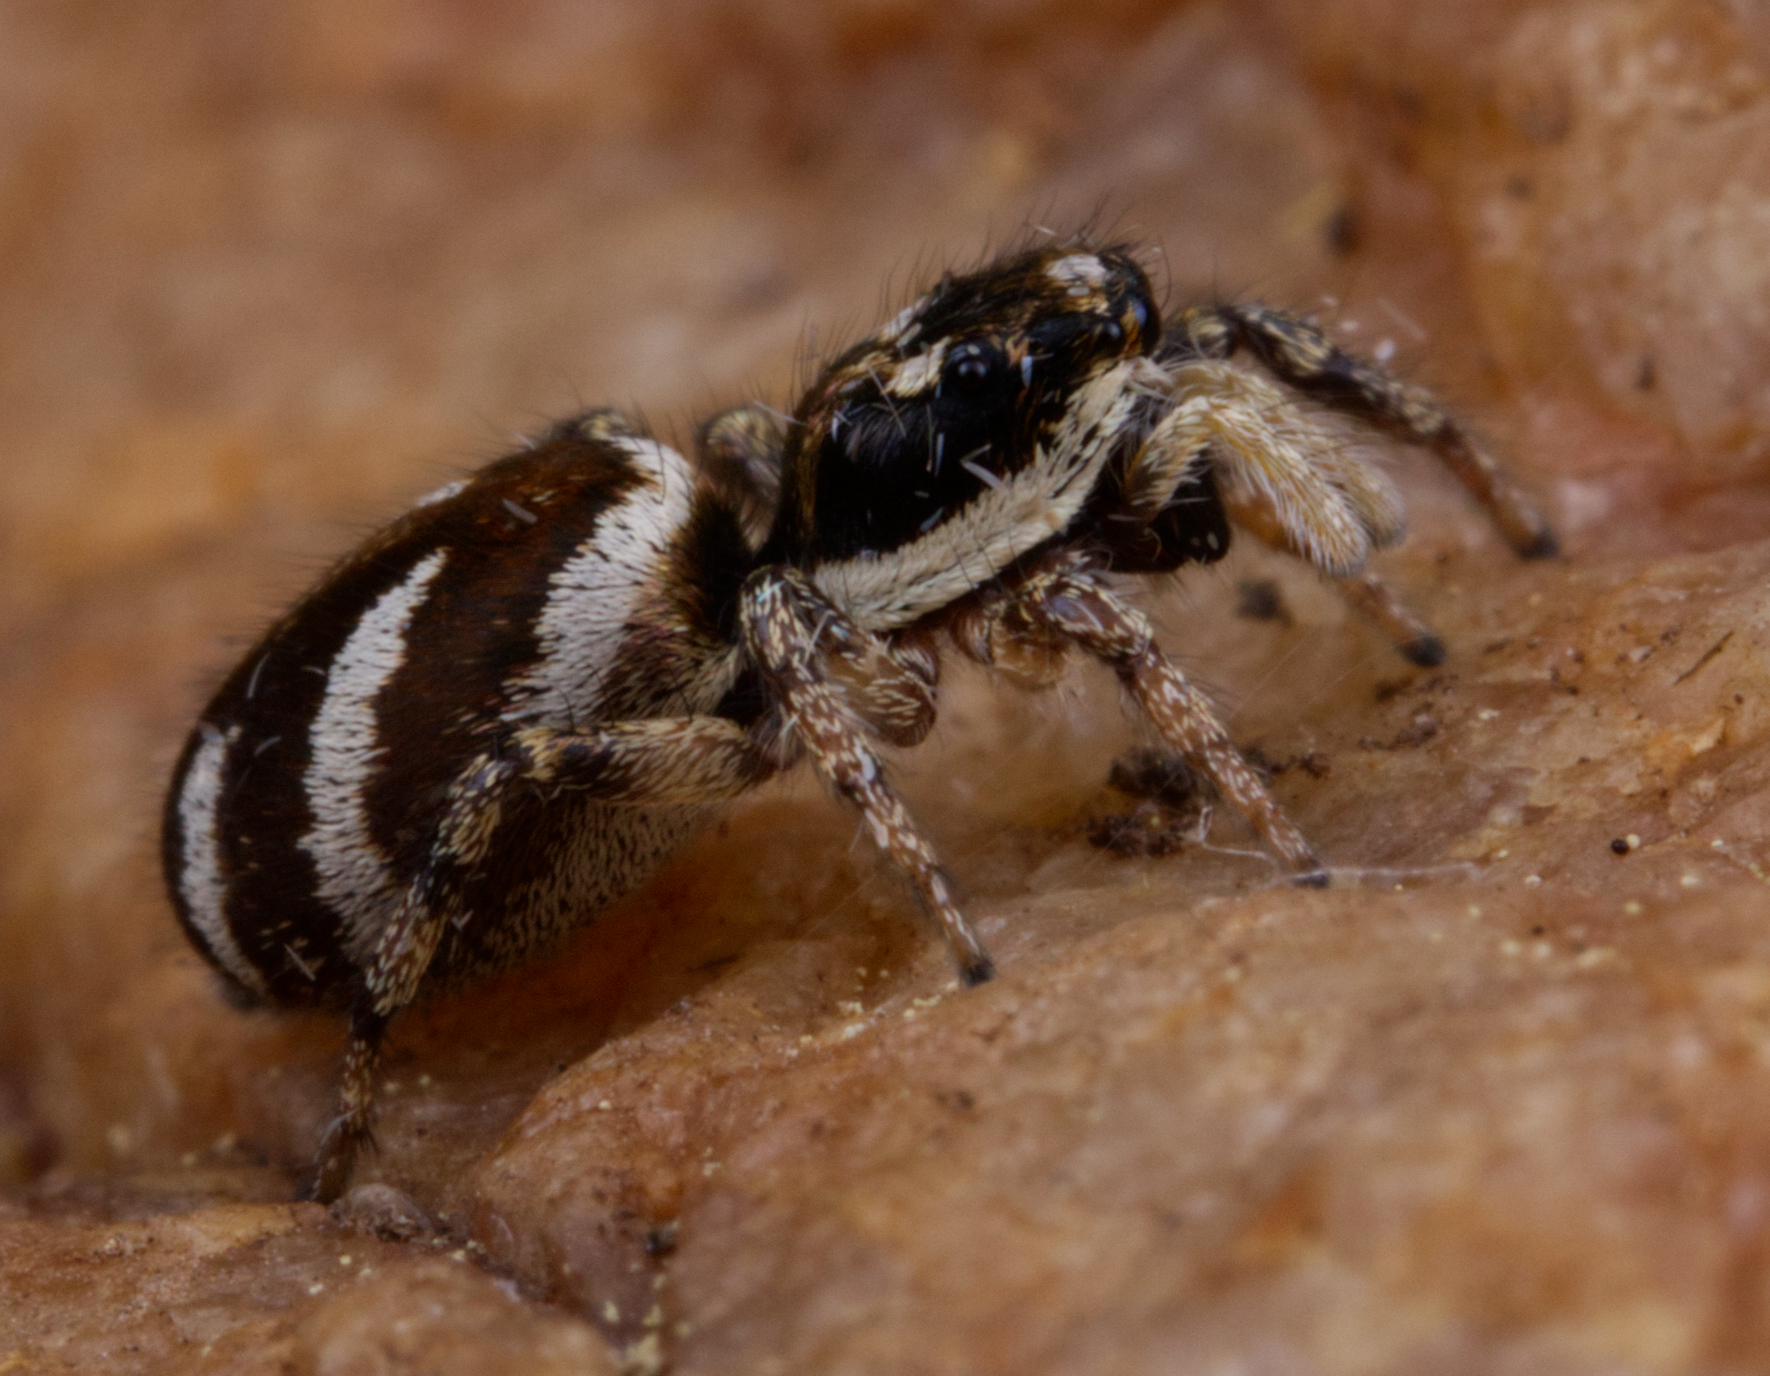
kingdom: Animalia
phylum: Arthropoda
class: Arachnida
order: Araneae
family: Salticidae
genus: Salticus
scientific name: Salticus scenicus
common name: Zebra jumper
